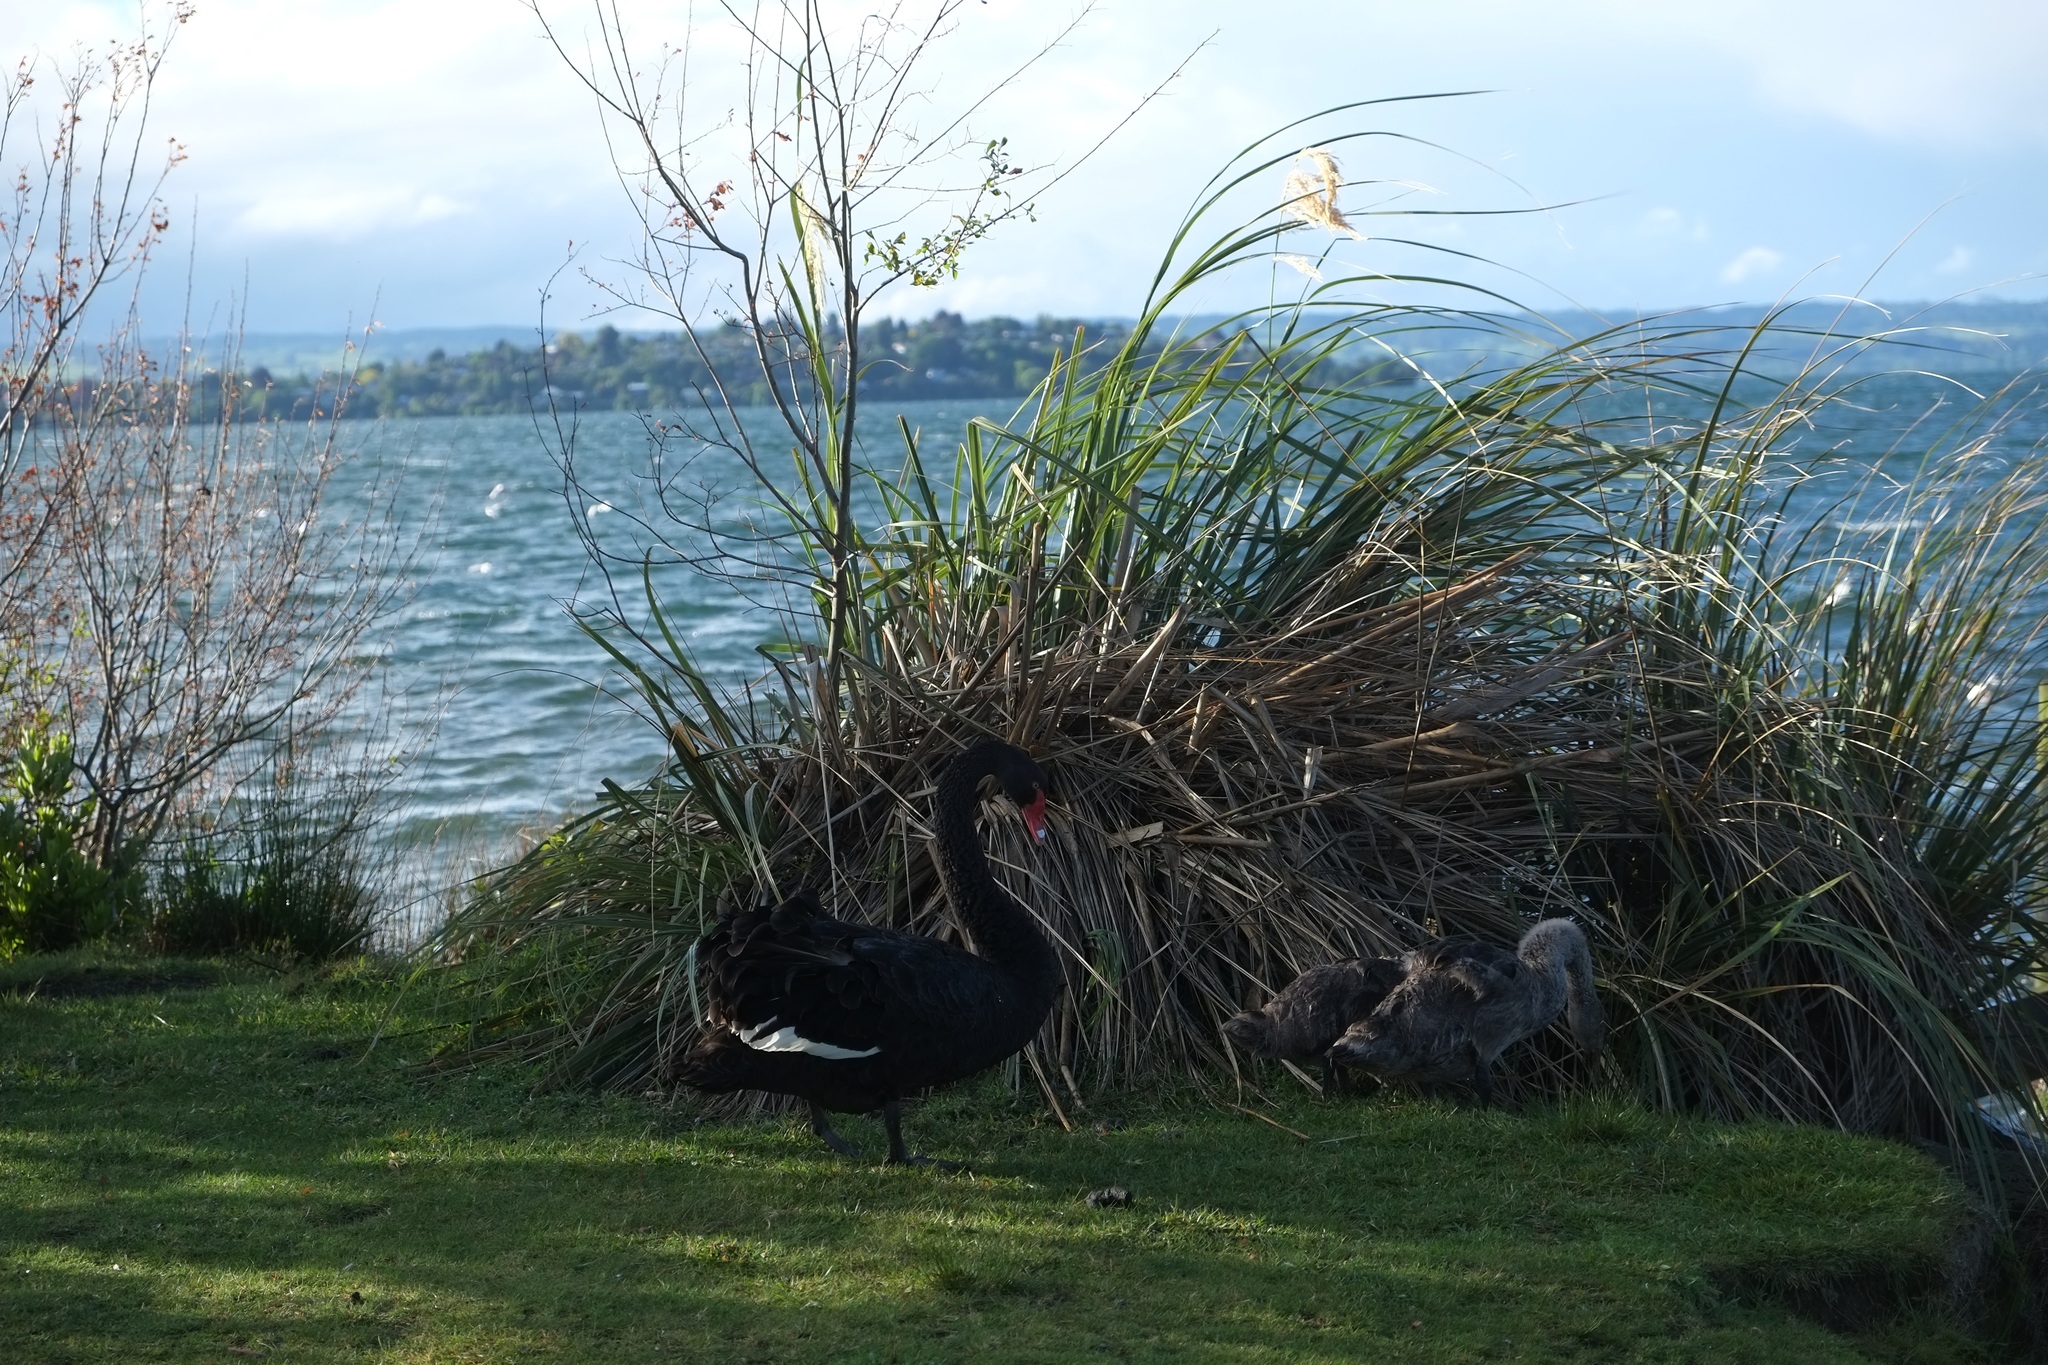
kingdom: Animalia
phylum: Chordata
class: Aves
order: Anseriformes
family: Anatidae
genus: Cygnus
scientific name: Cygnus atratus
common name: Black swan
